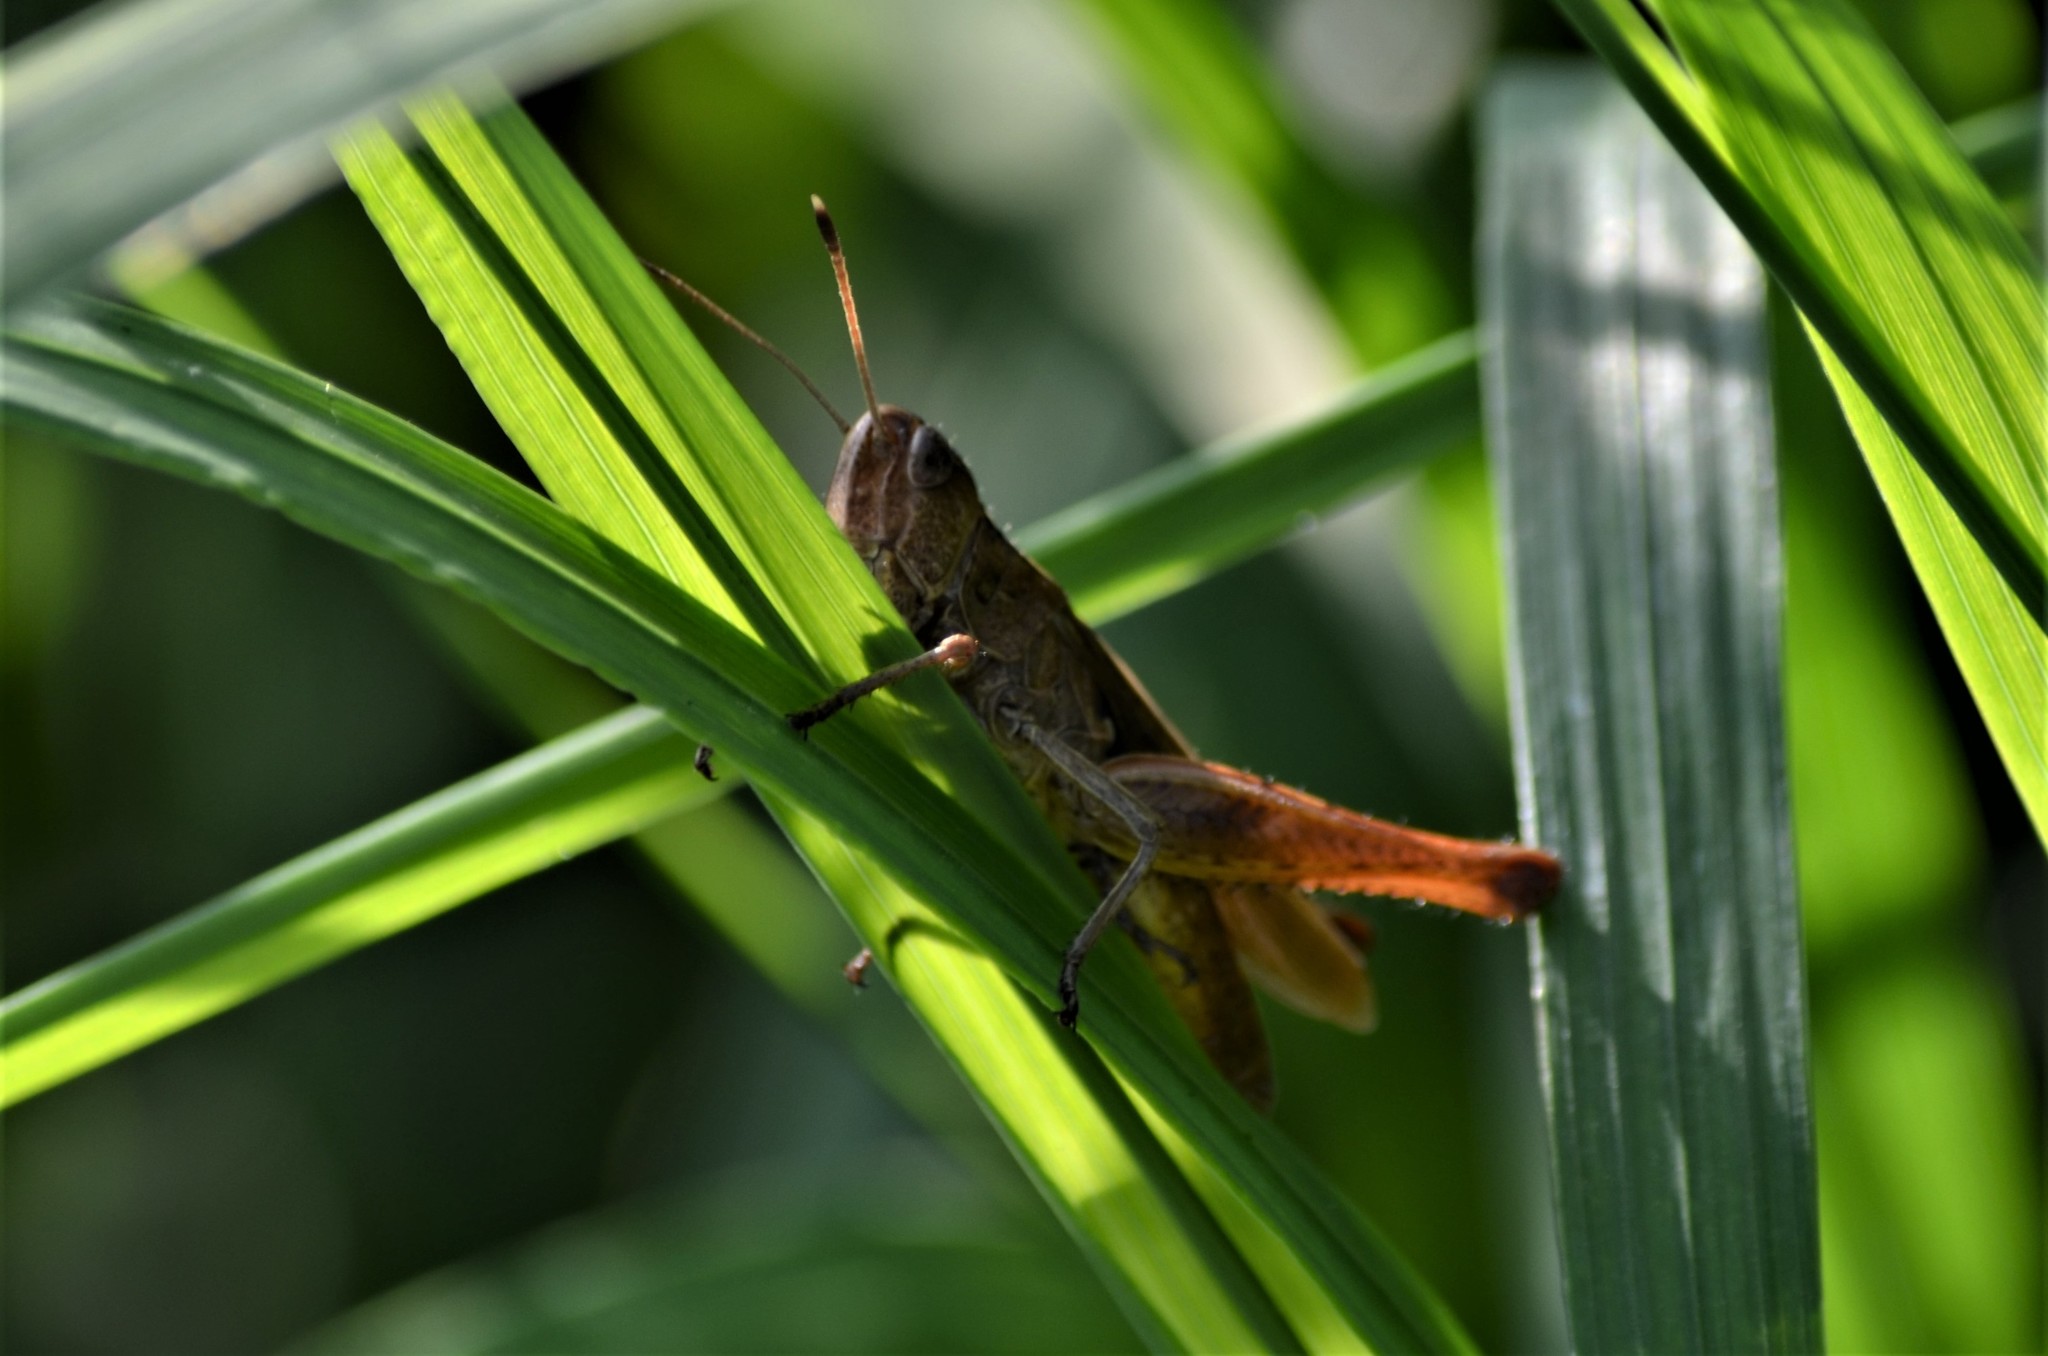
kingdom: Animalia
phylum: Arthropoda
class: Insecta
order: Orthoptera
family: Acrididae
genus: Gomphocerippus
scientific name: Gomphocerippus rufus
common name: Rufous grasshopper
